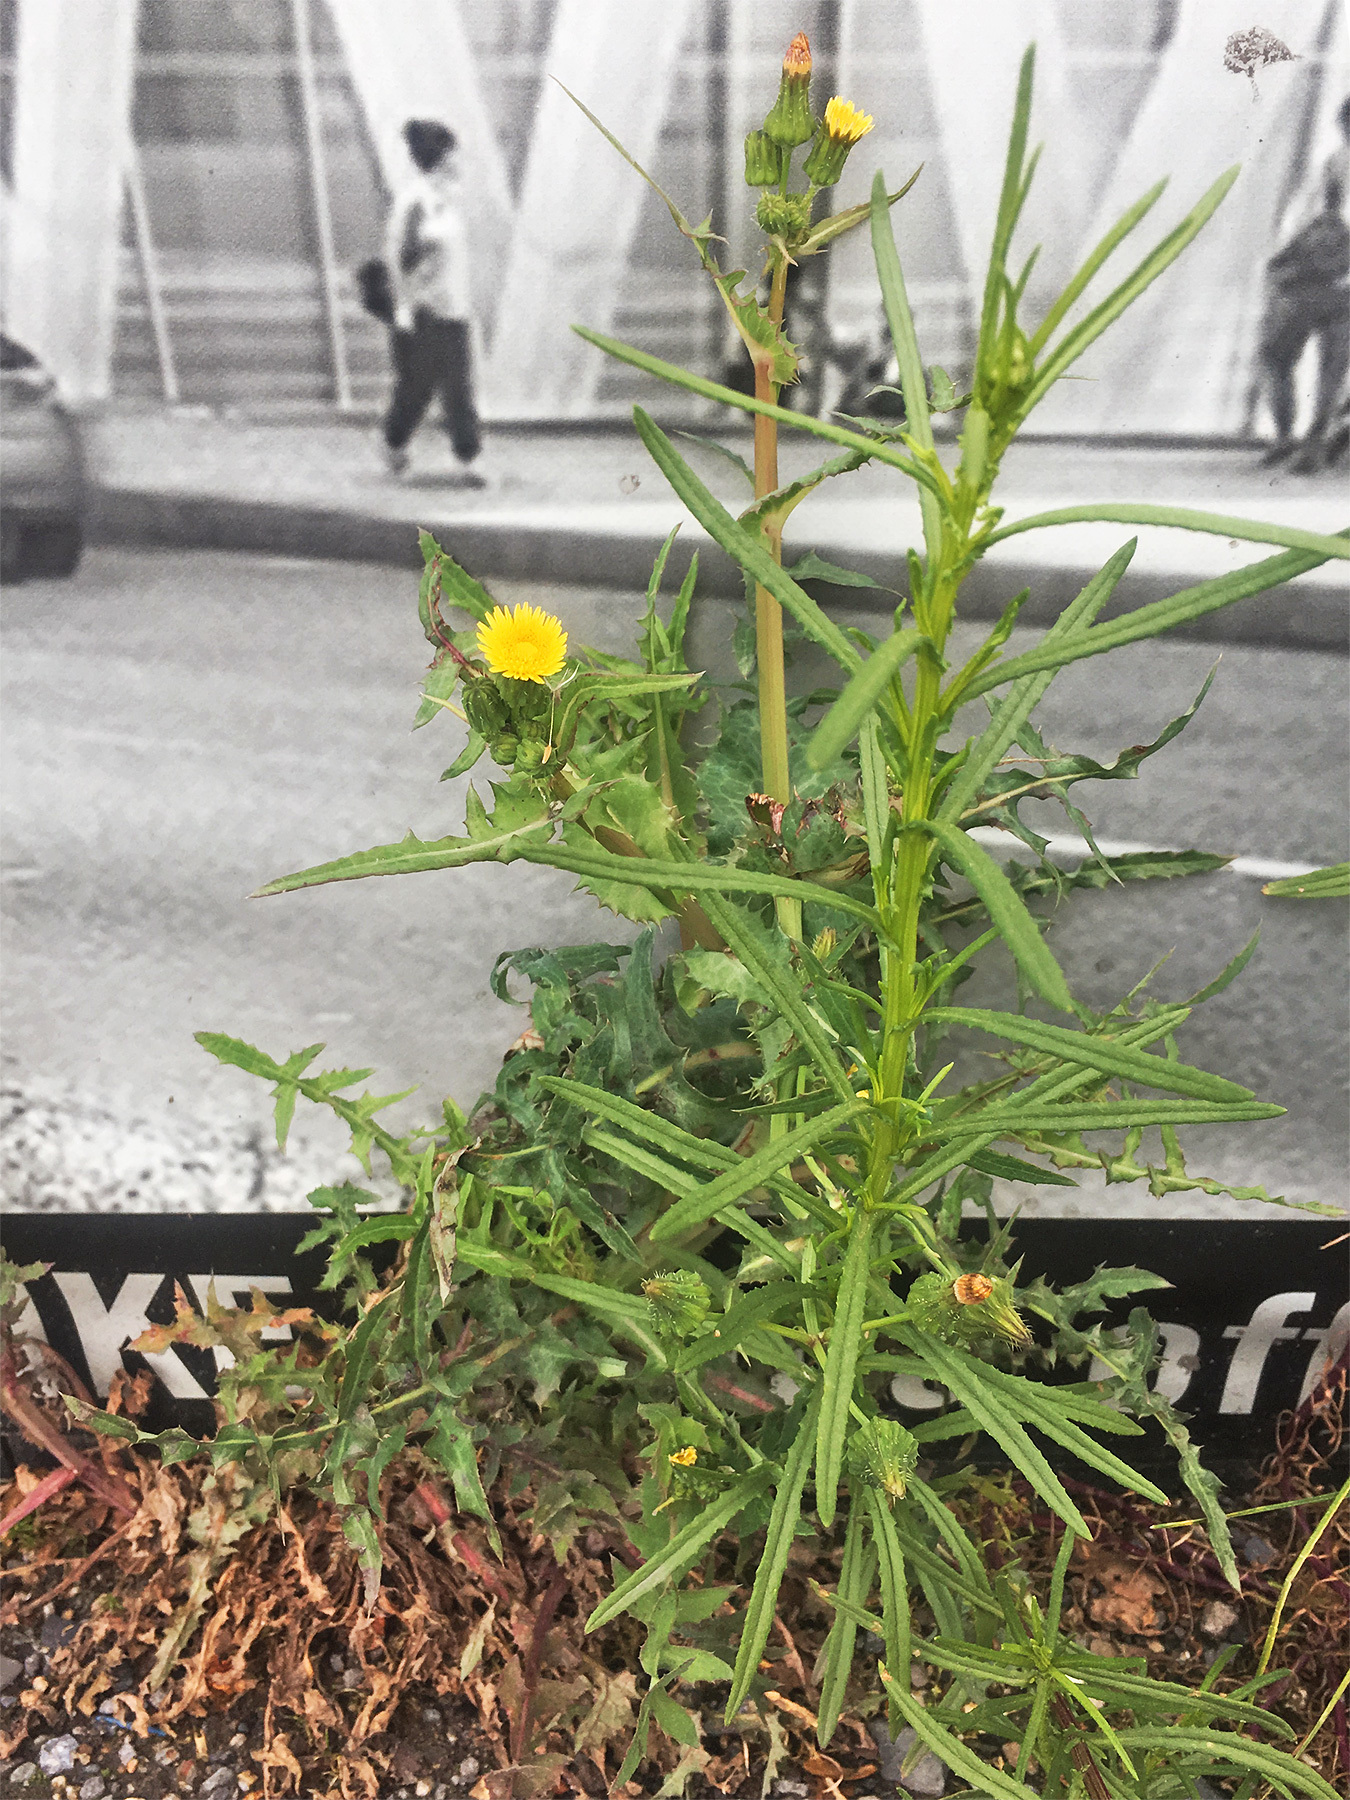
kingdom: Plantae
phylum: Tracheophyta
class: Magnoliopsida
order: Asterales
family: Asteraceae
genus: Sonchus
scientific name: Sonchus asper
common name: Prickly sow-thistle
